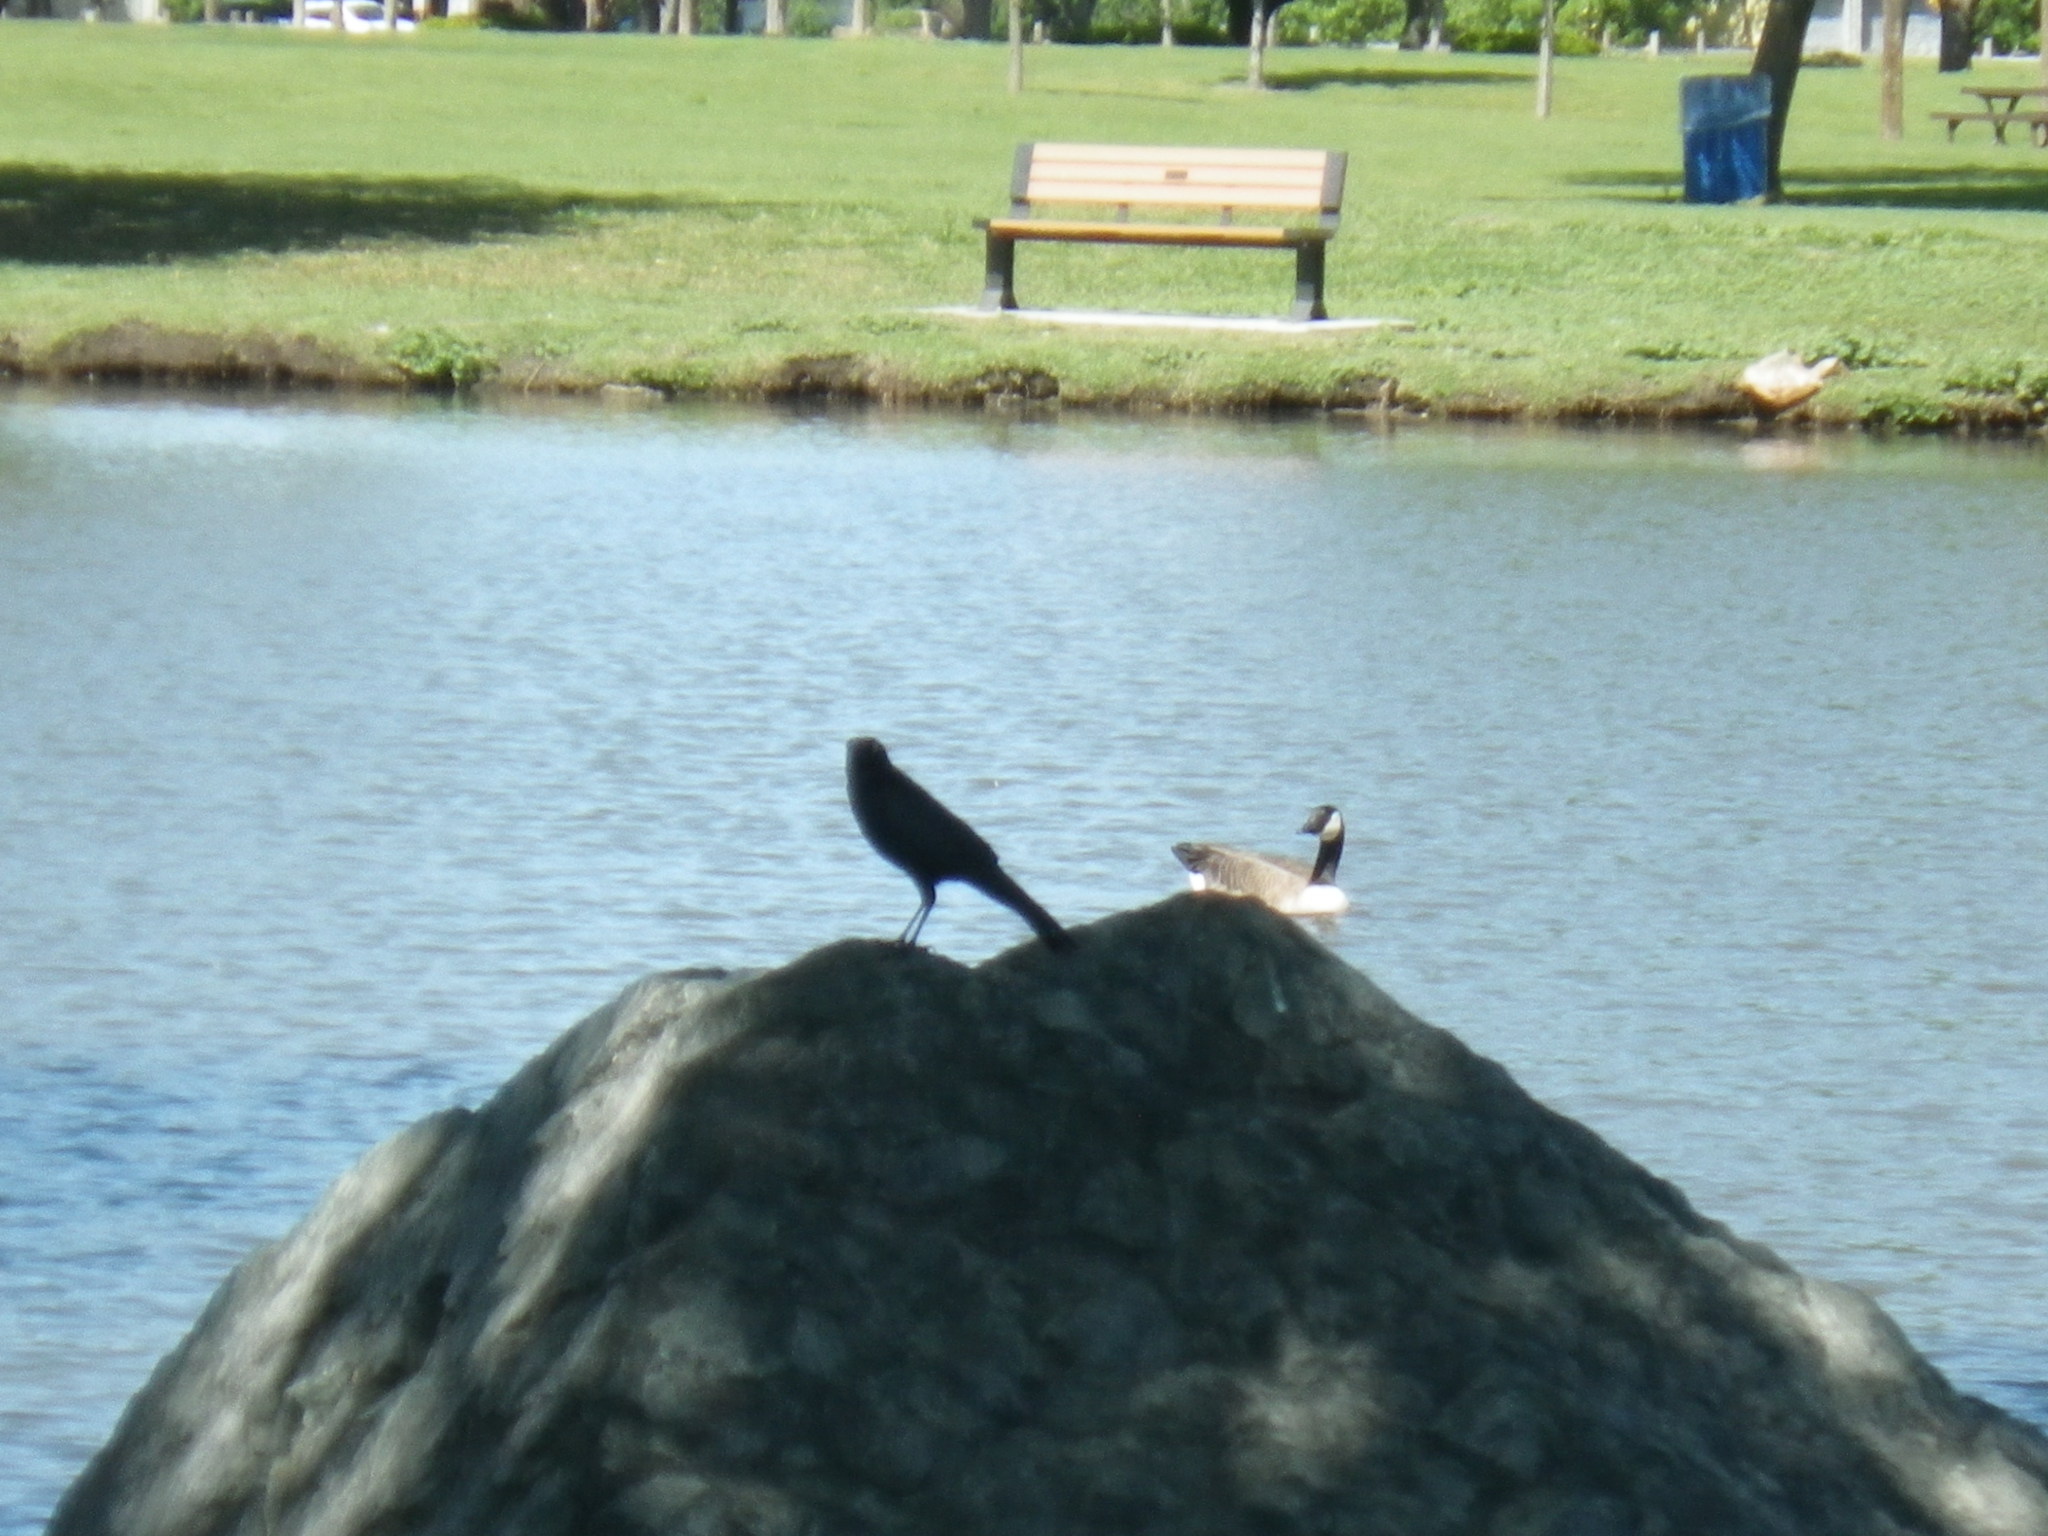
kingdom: Animalia
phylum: Chordata
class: Aves
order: Passeriformes
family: Icteridae
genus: Euphagus
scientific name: Euphagus cyanocephalus
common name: Brewer's blackbird
